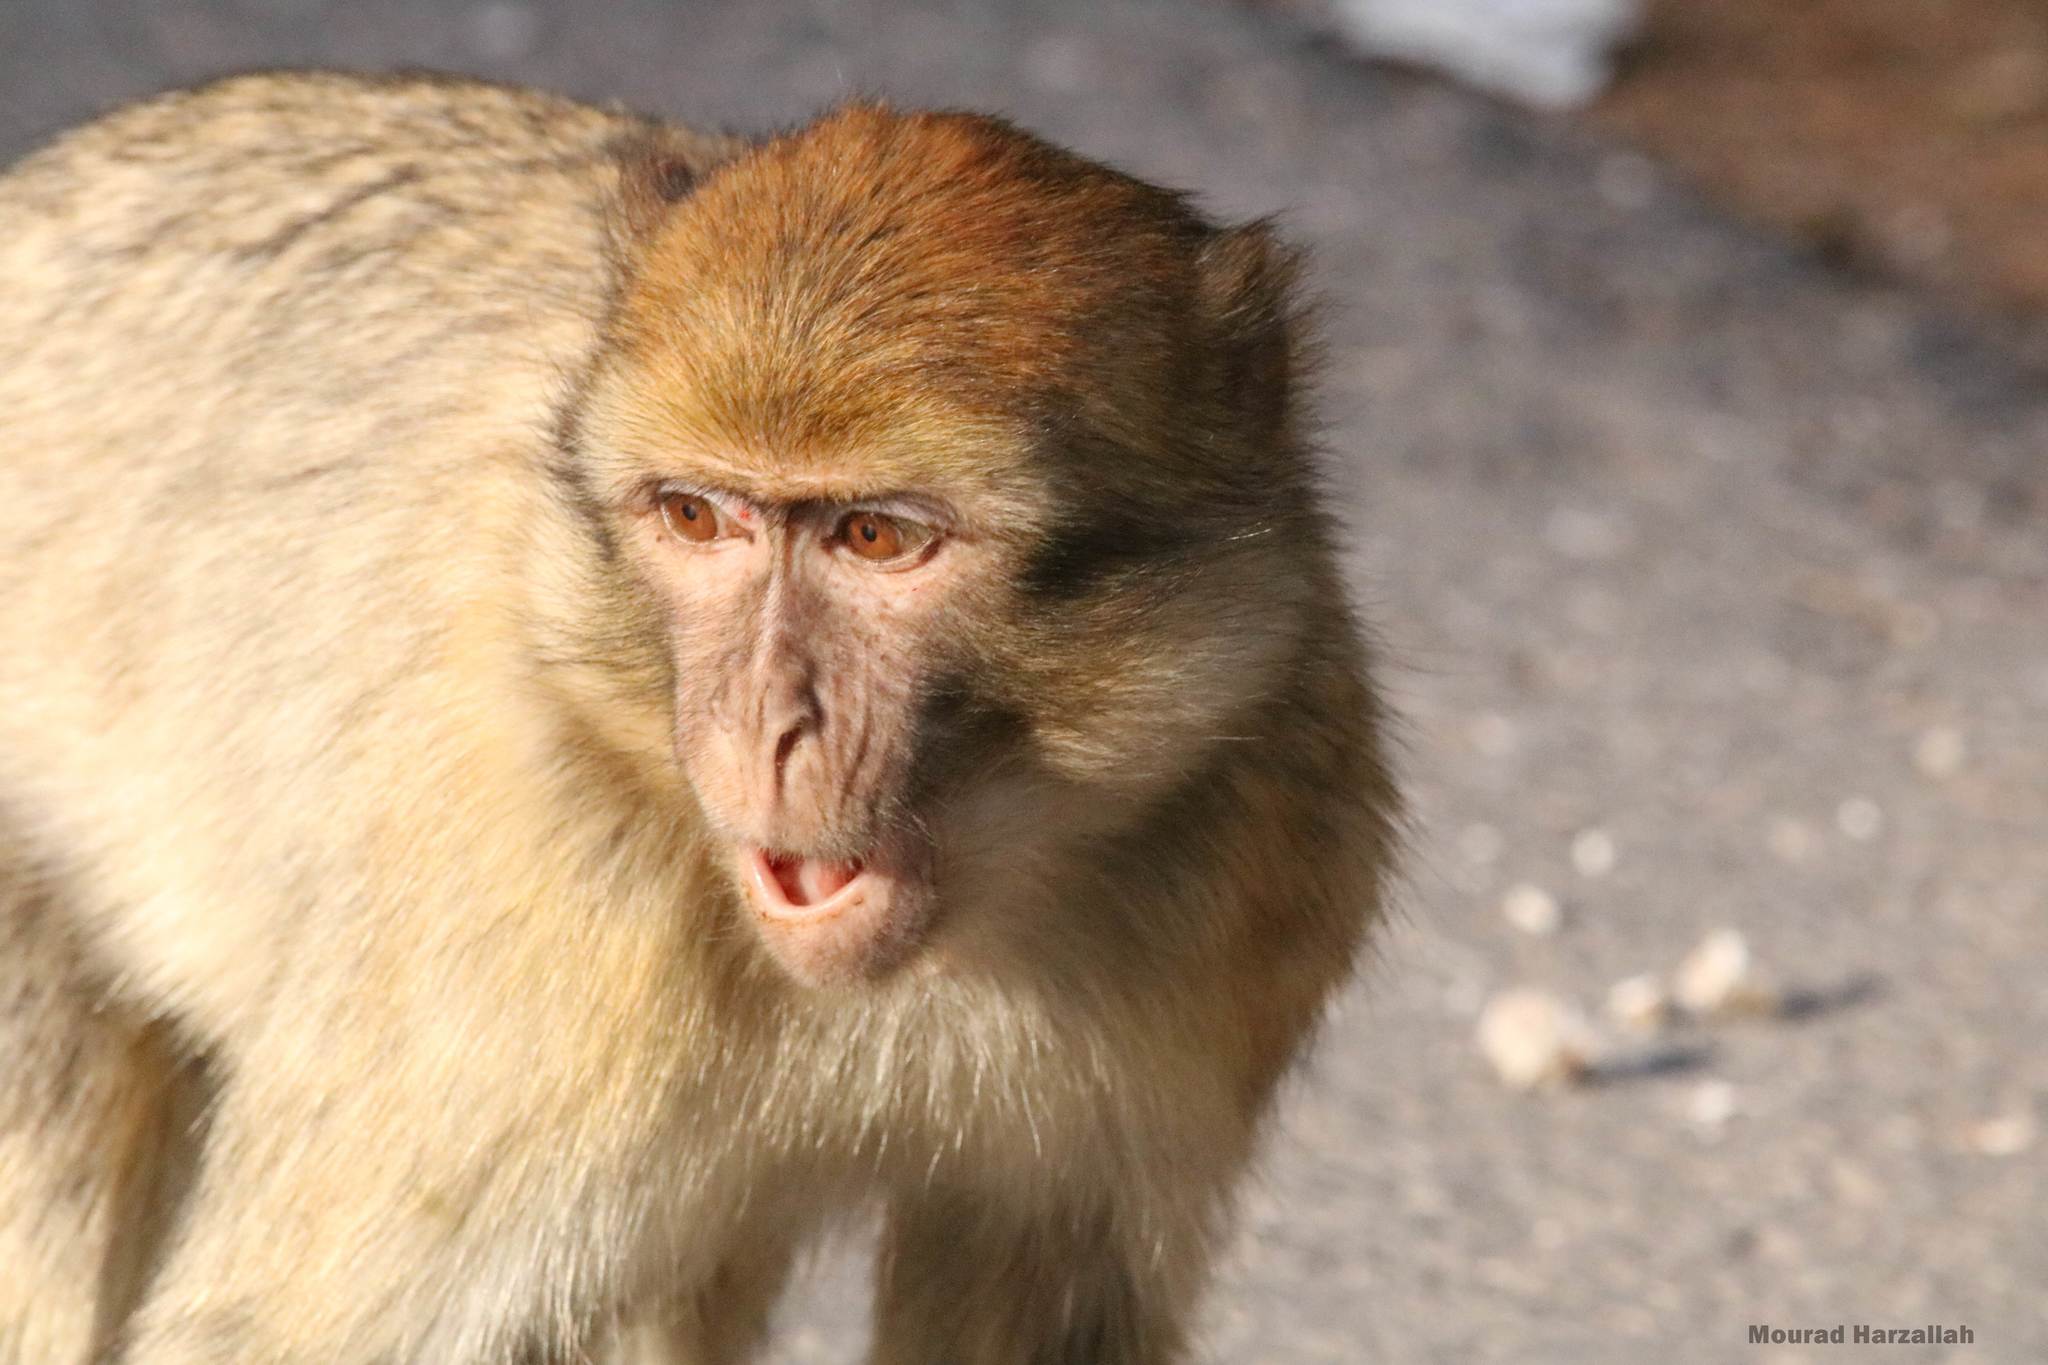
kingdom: Animalia
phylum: Chordata
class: Mammalia
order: Primates
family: Cercopithecidae
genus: Macaca
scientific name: Macaca sylvanus
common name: Barbary macaque
